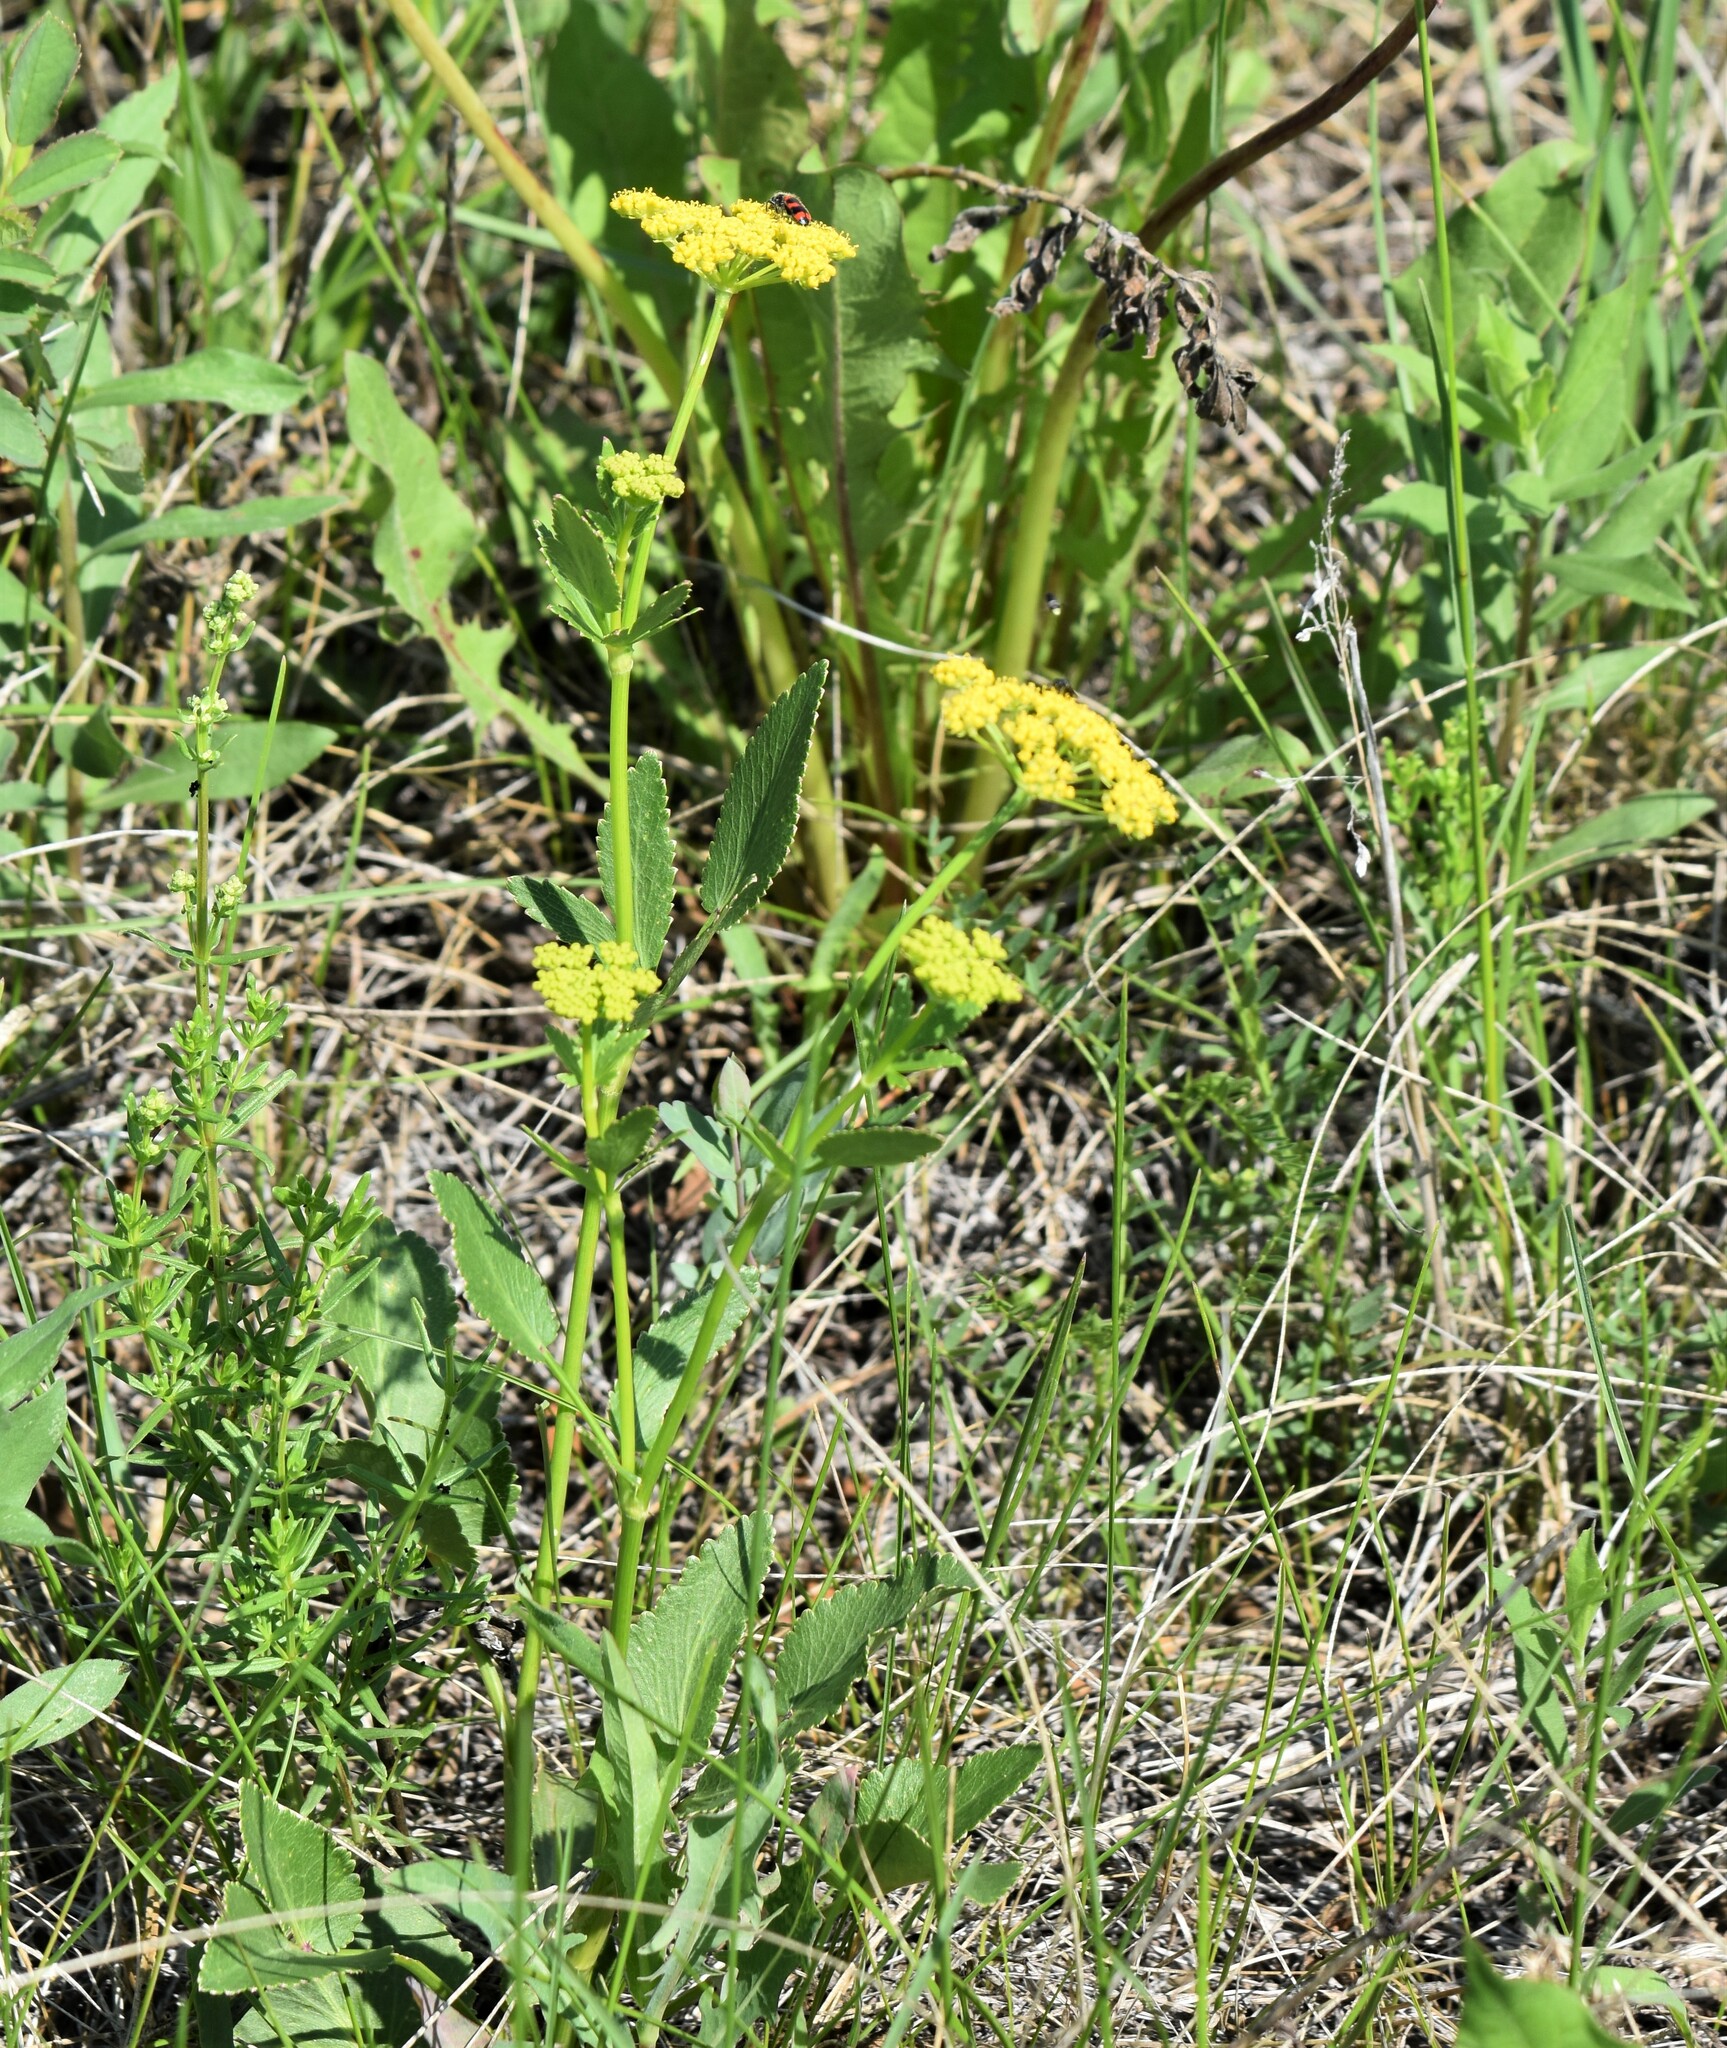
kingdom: Plantae
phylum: Tracheophyta
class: Magnoliopsida
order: Apiales
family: Apiaceae
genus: Zizia
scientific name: Zizia aptera
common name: Heart-leaved alexanders
